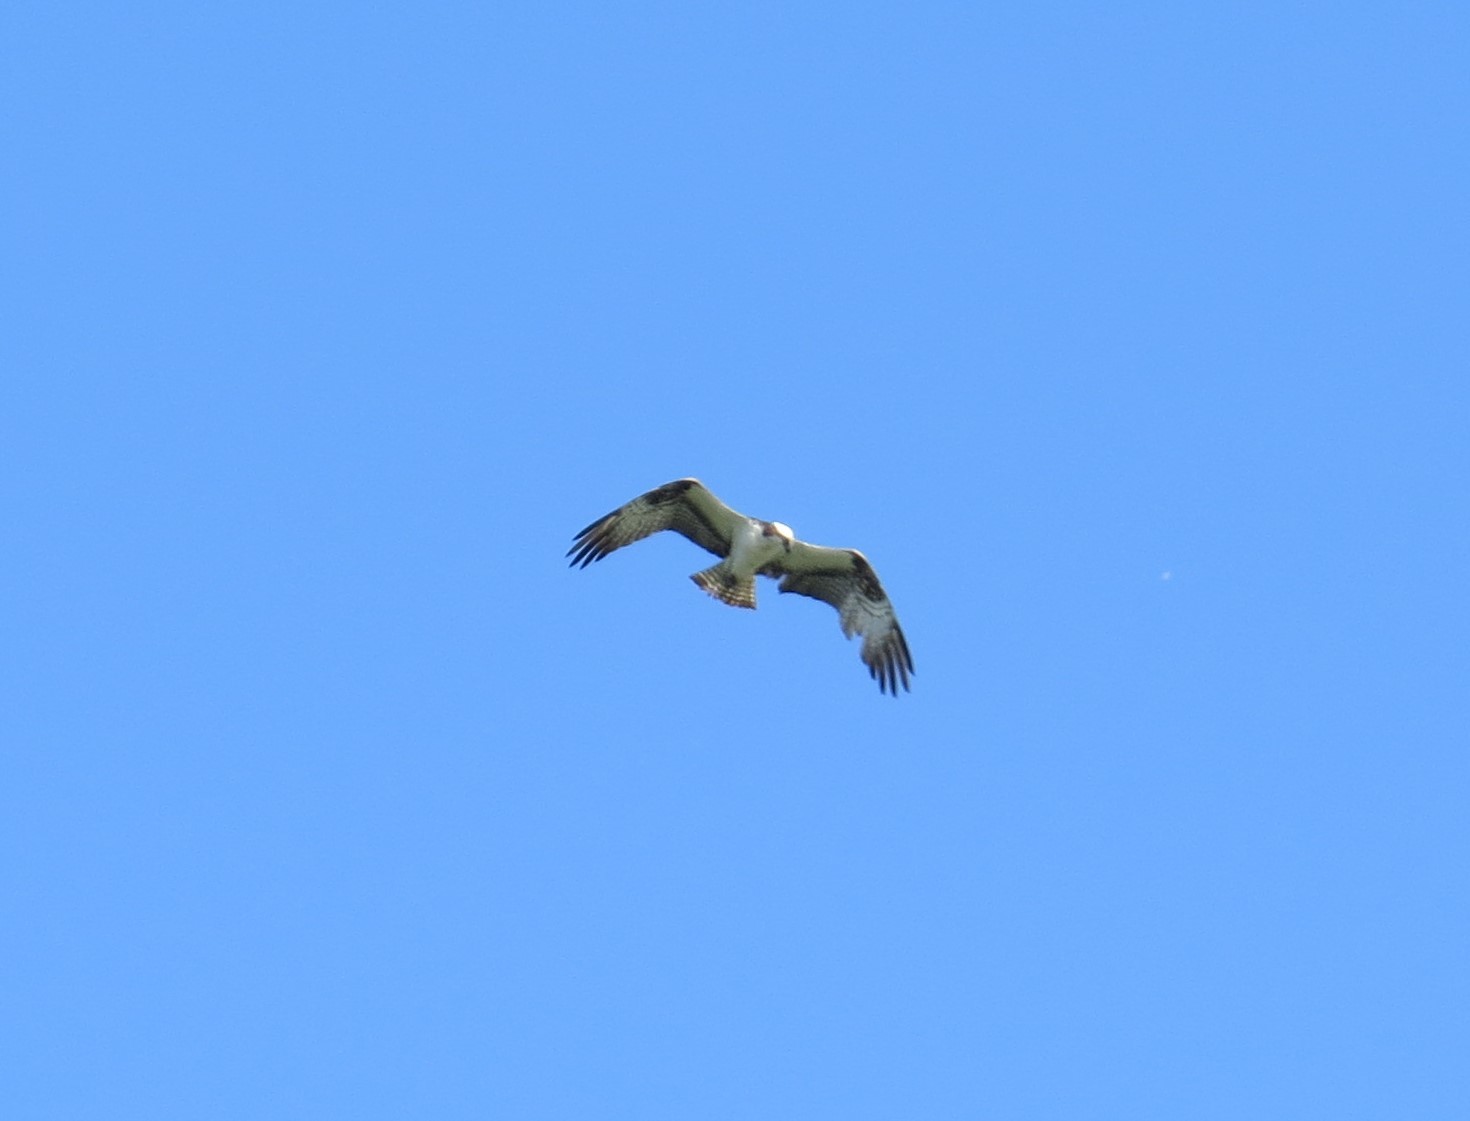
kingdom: Animalia
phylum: Chordata
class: Aves
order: Accipitriformes
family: Pandionidae
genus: Pandion
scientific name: Pandion haliaetus
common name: Osprey
